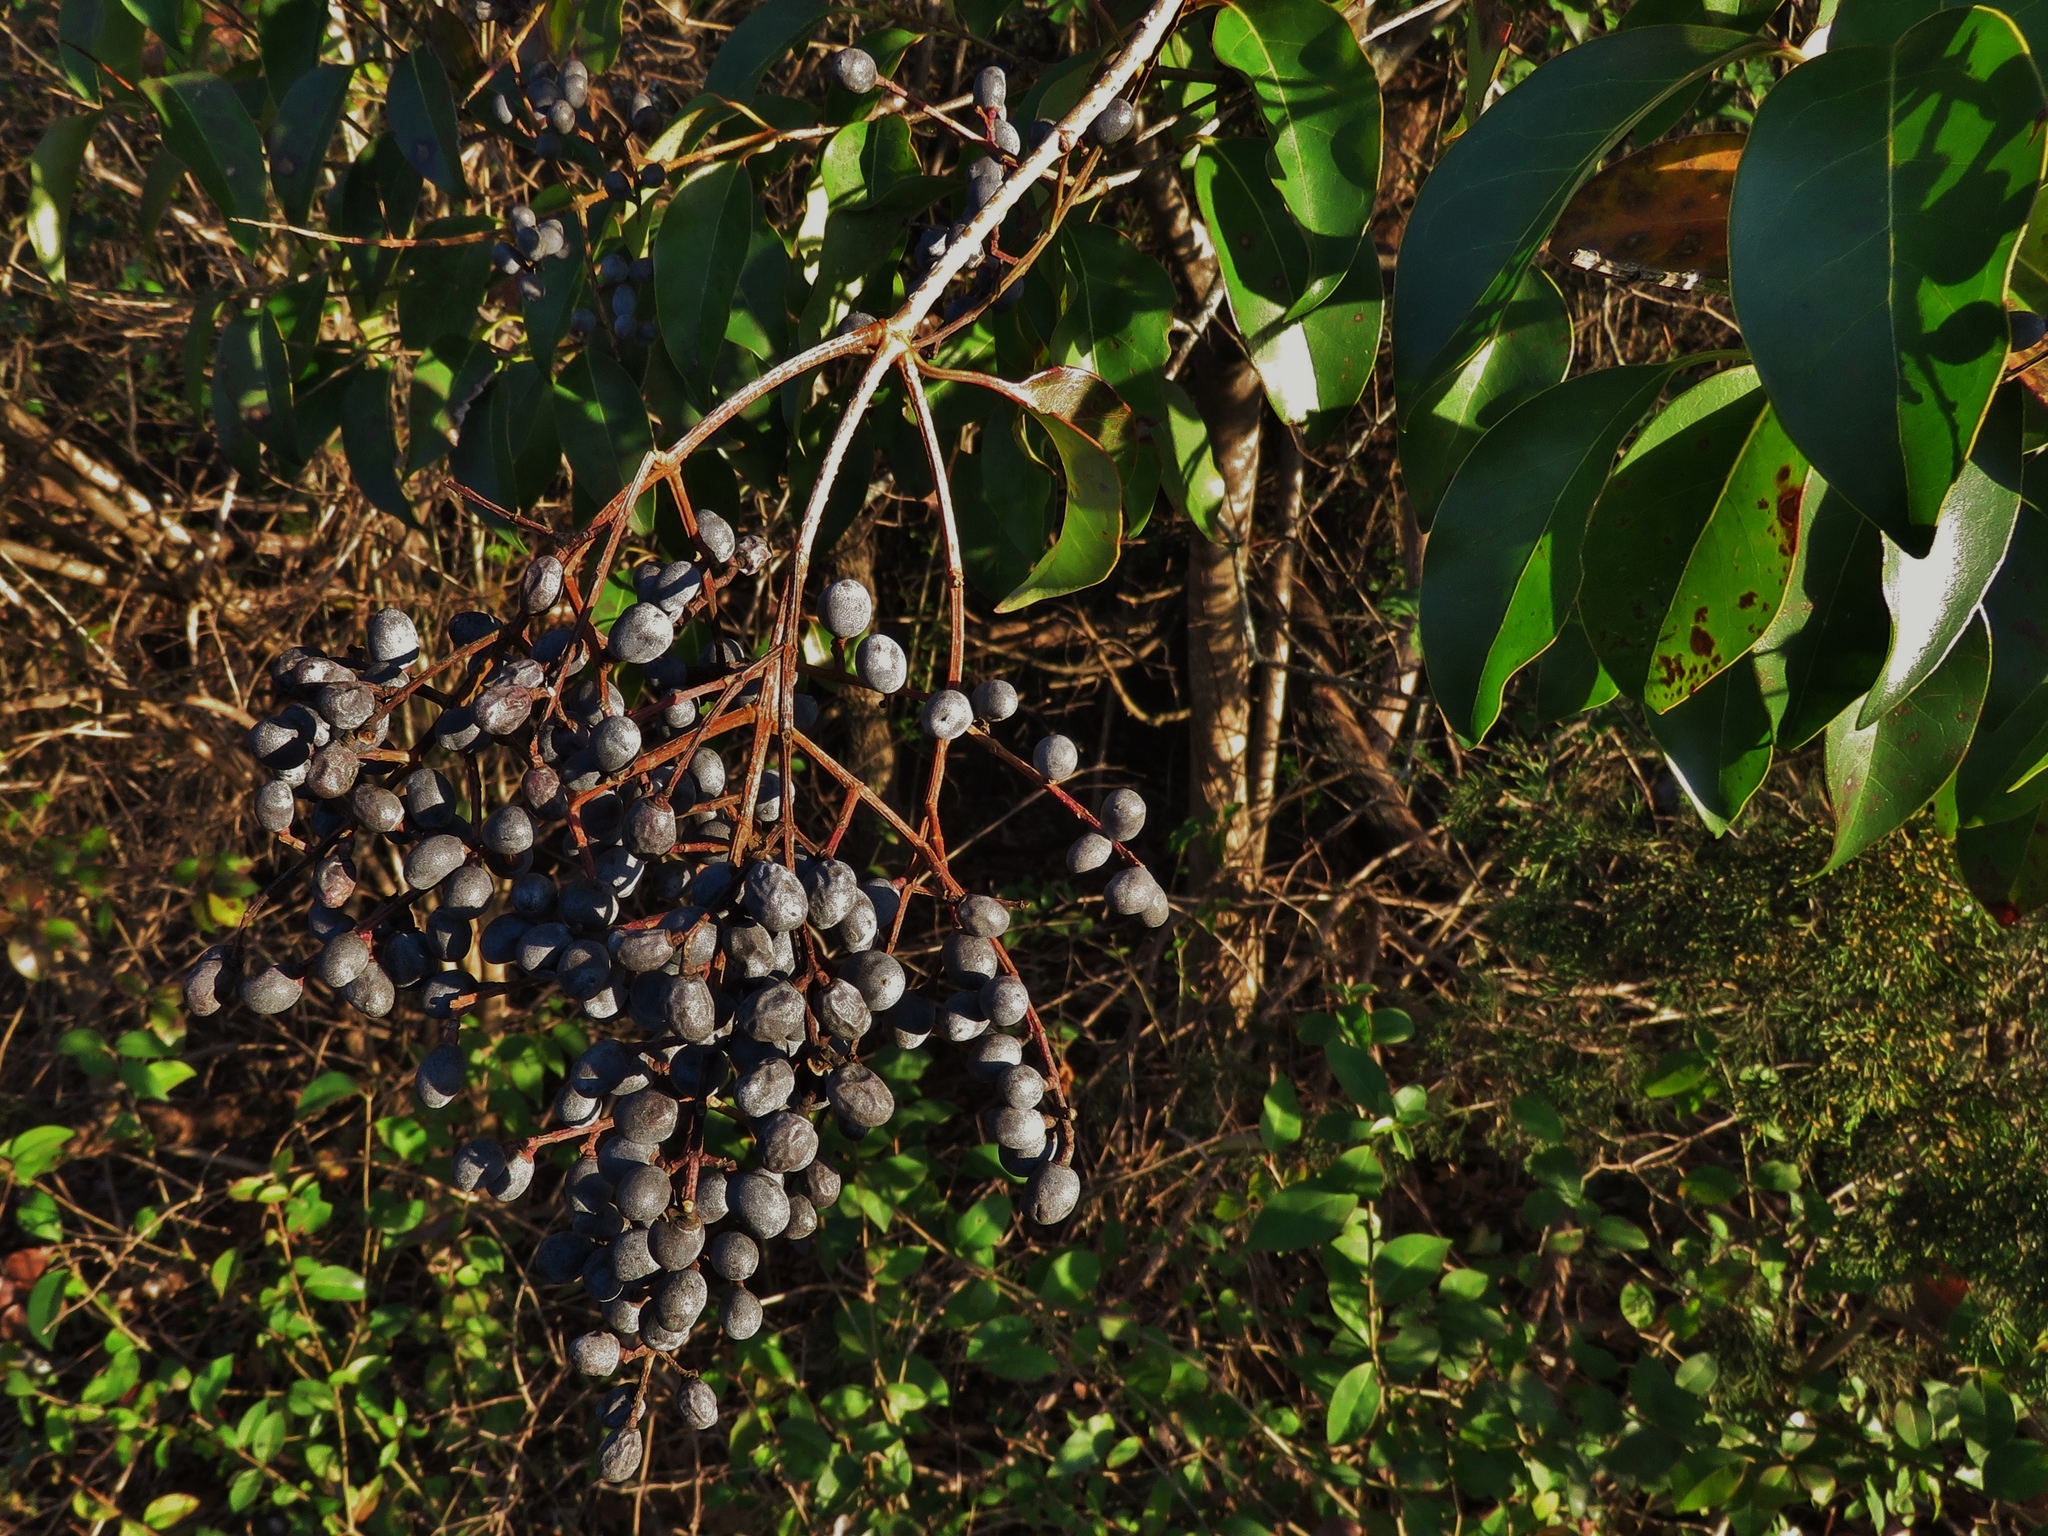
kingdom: Plantae
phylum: Tracheophyta
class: Magnoliopsida
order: Lamiales
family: Oleaceae
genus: Ligustrum
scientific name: Ligustrum lucidum
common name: Glossy privet
